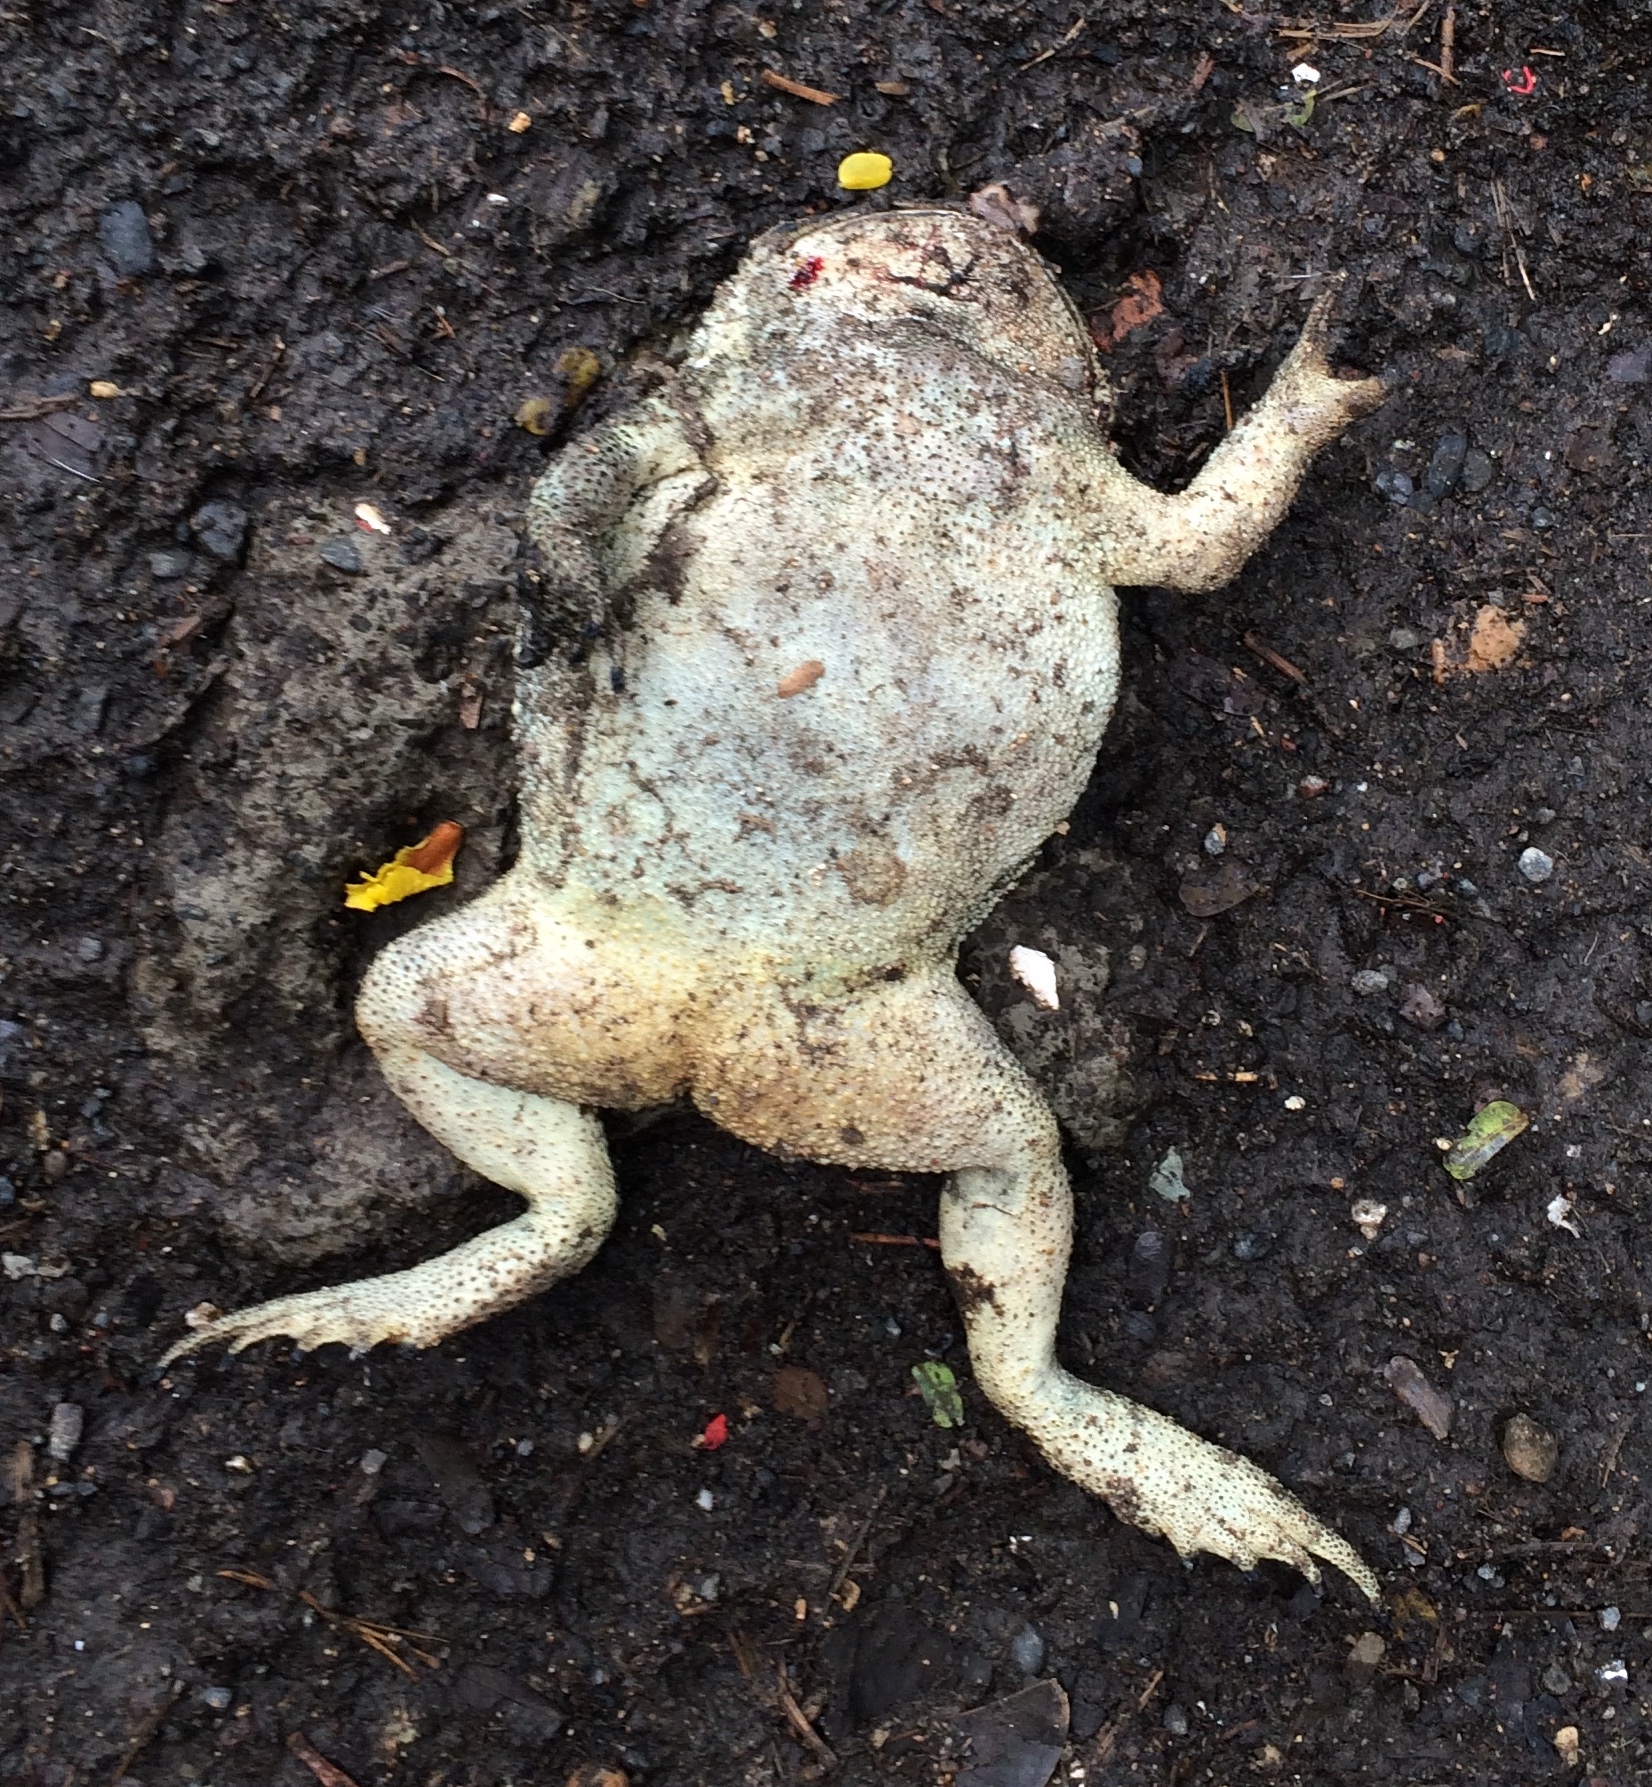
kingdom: Animalia
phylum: Chordata
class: Amphibia
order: Anura
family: Dicroglossidae
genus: Hoplobatrachus
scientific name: Hoplobatrachus tigerinus
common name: Indian bullfrog
